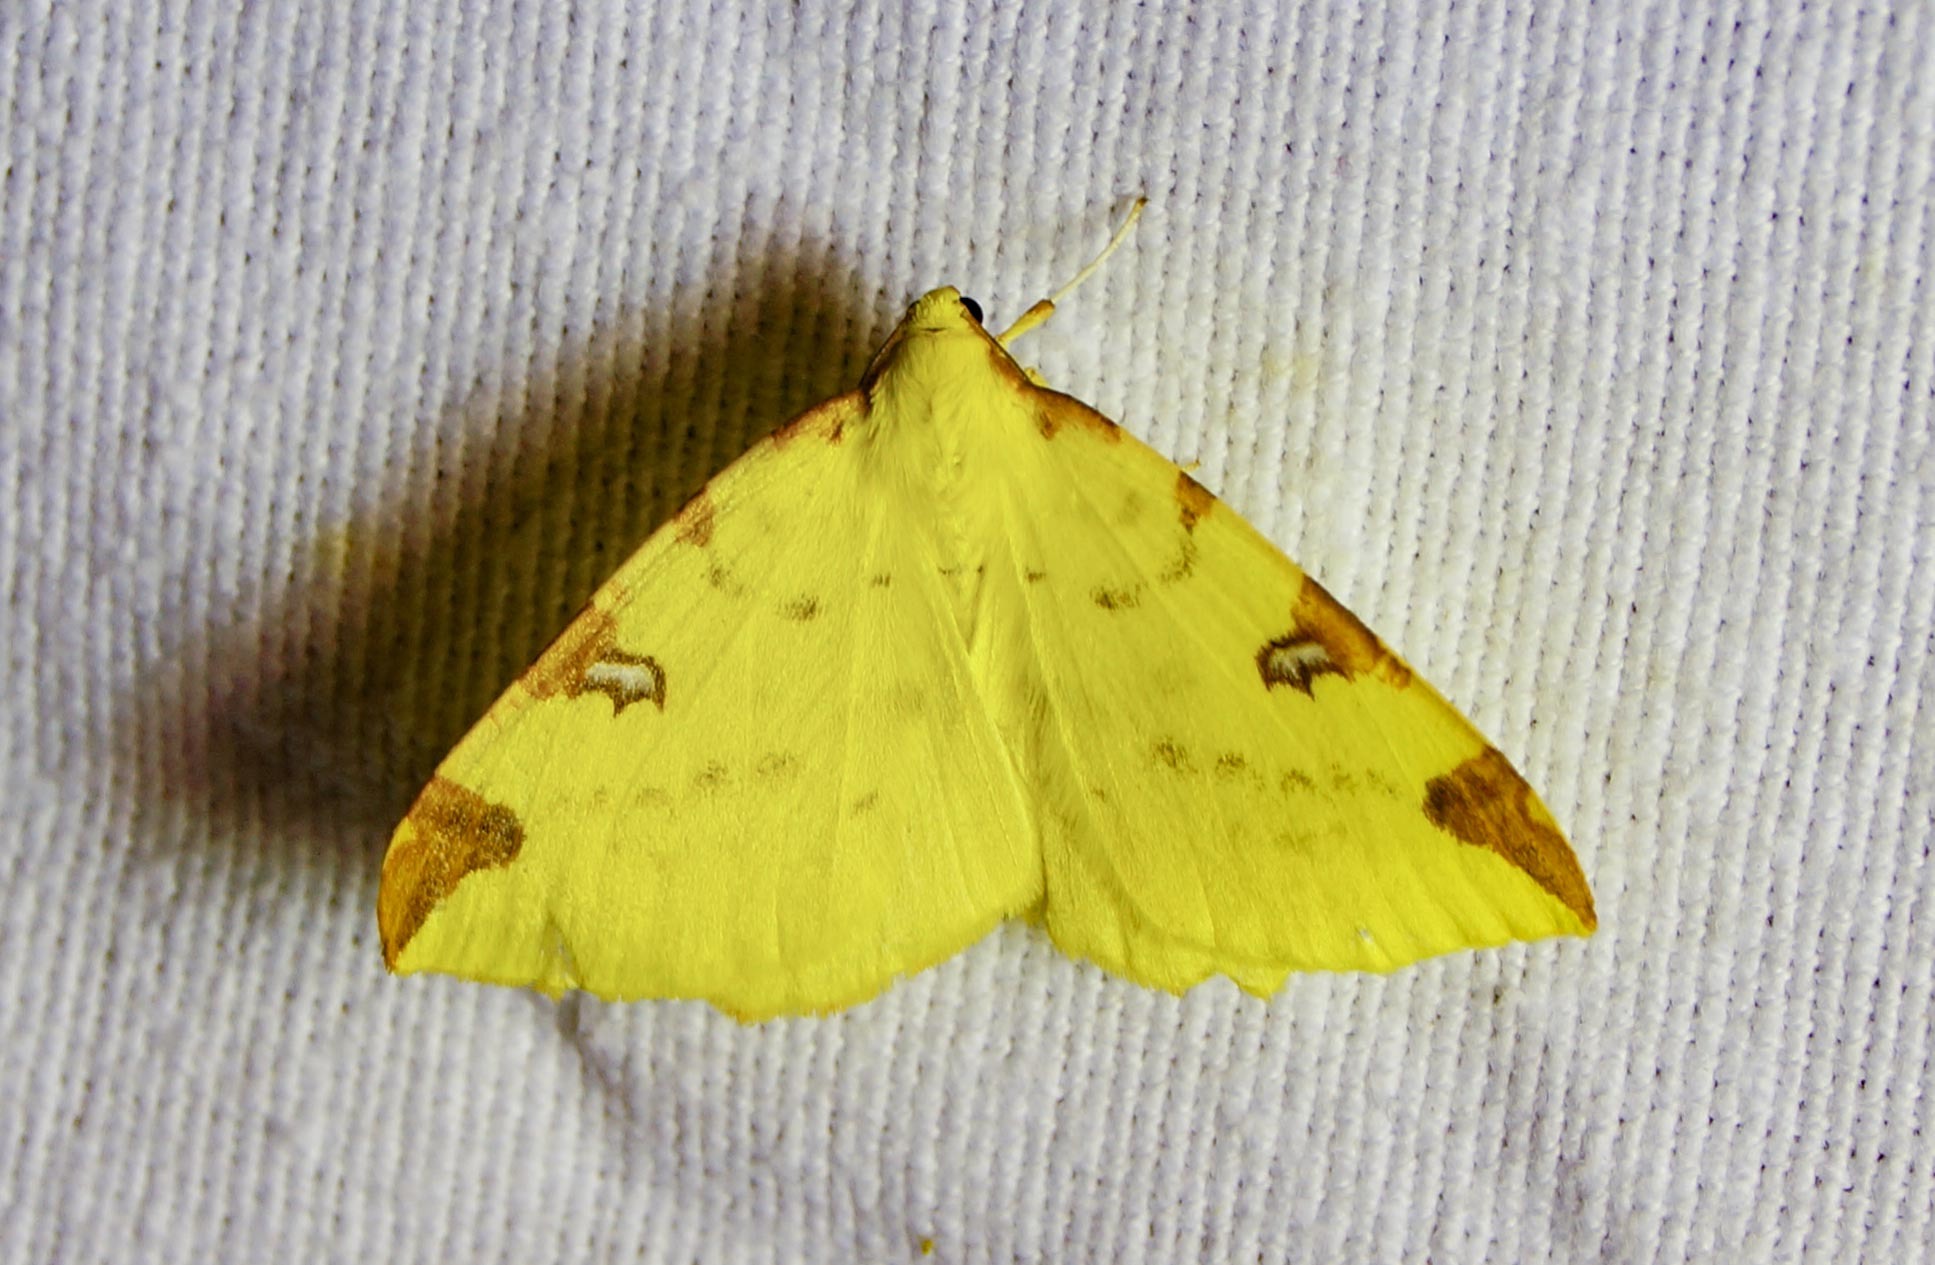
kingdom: Animalia
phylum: Arthropoda
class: Insecta
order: Lepidoptera
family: Geometridae
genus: Opisthograptis
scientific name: Opisthograptis luteolata
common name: Brimstone moth
